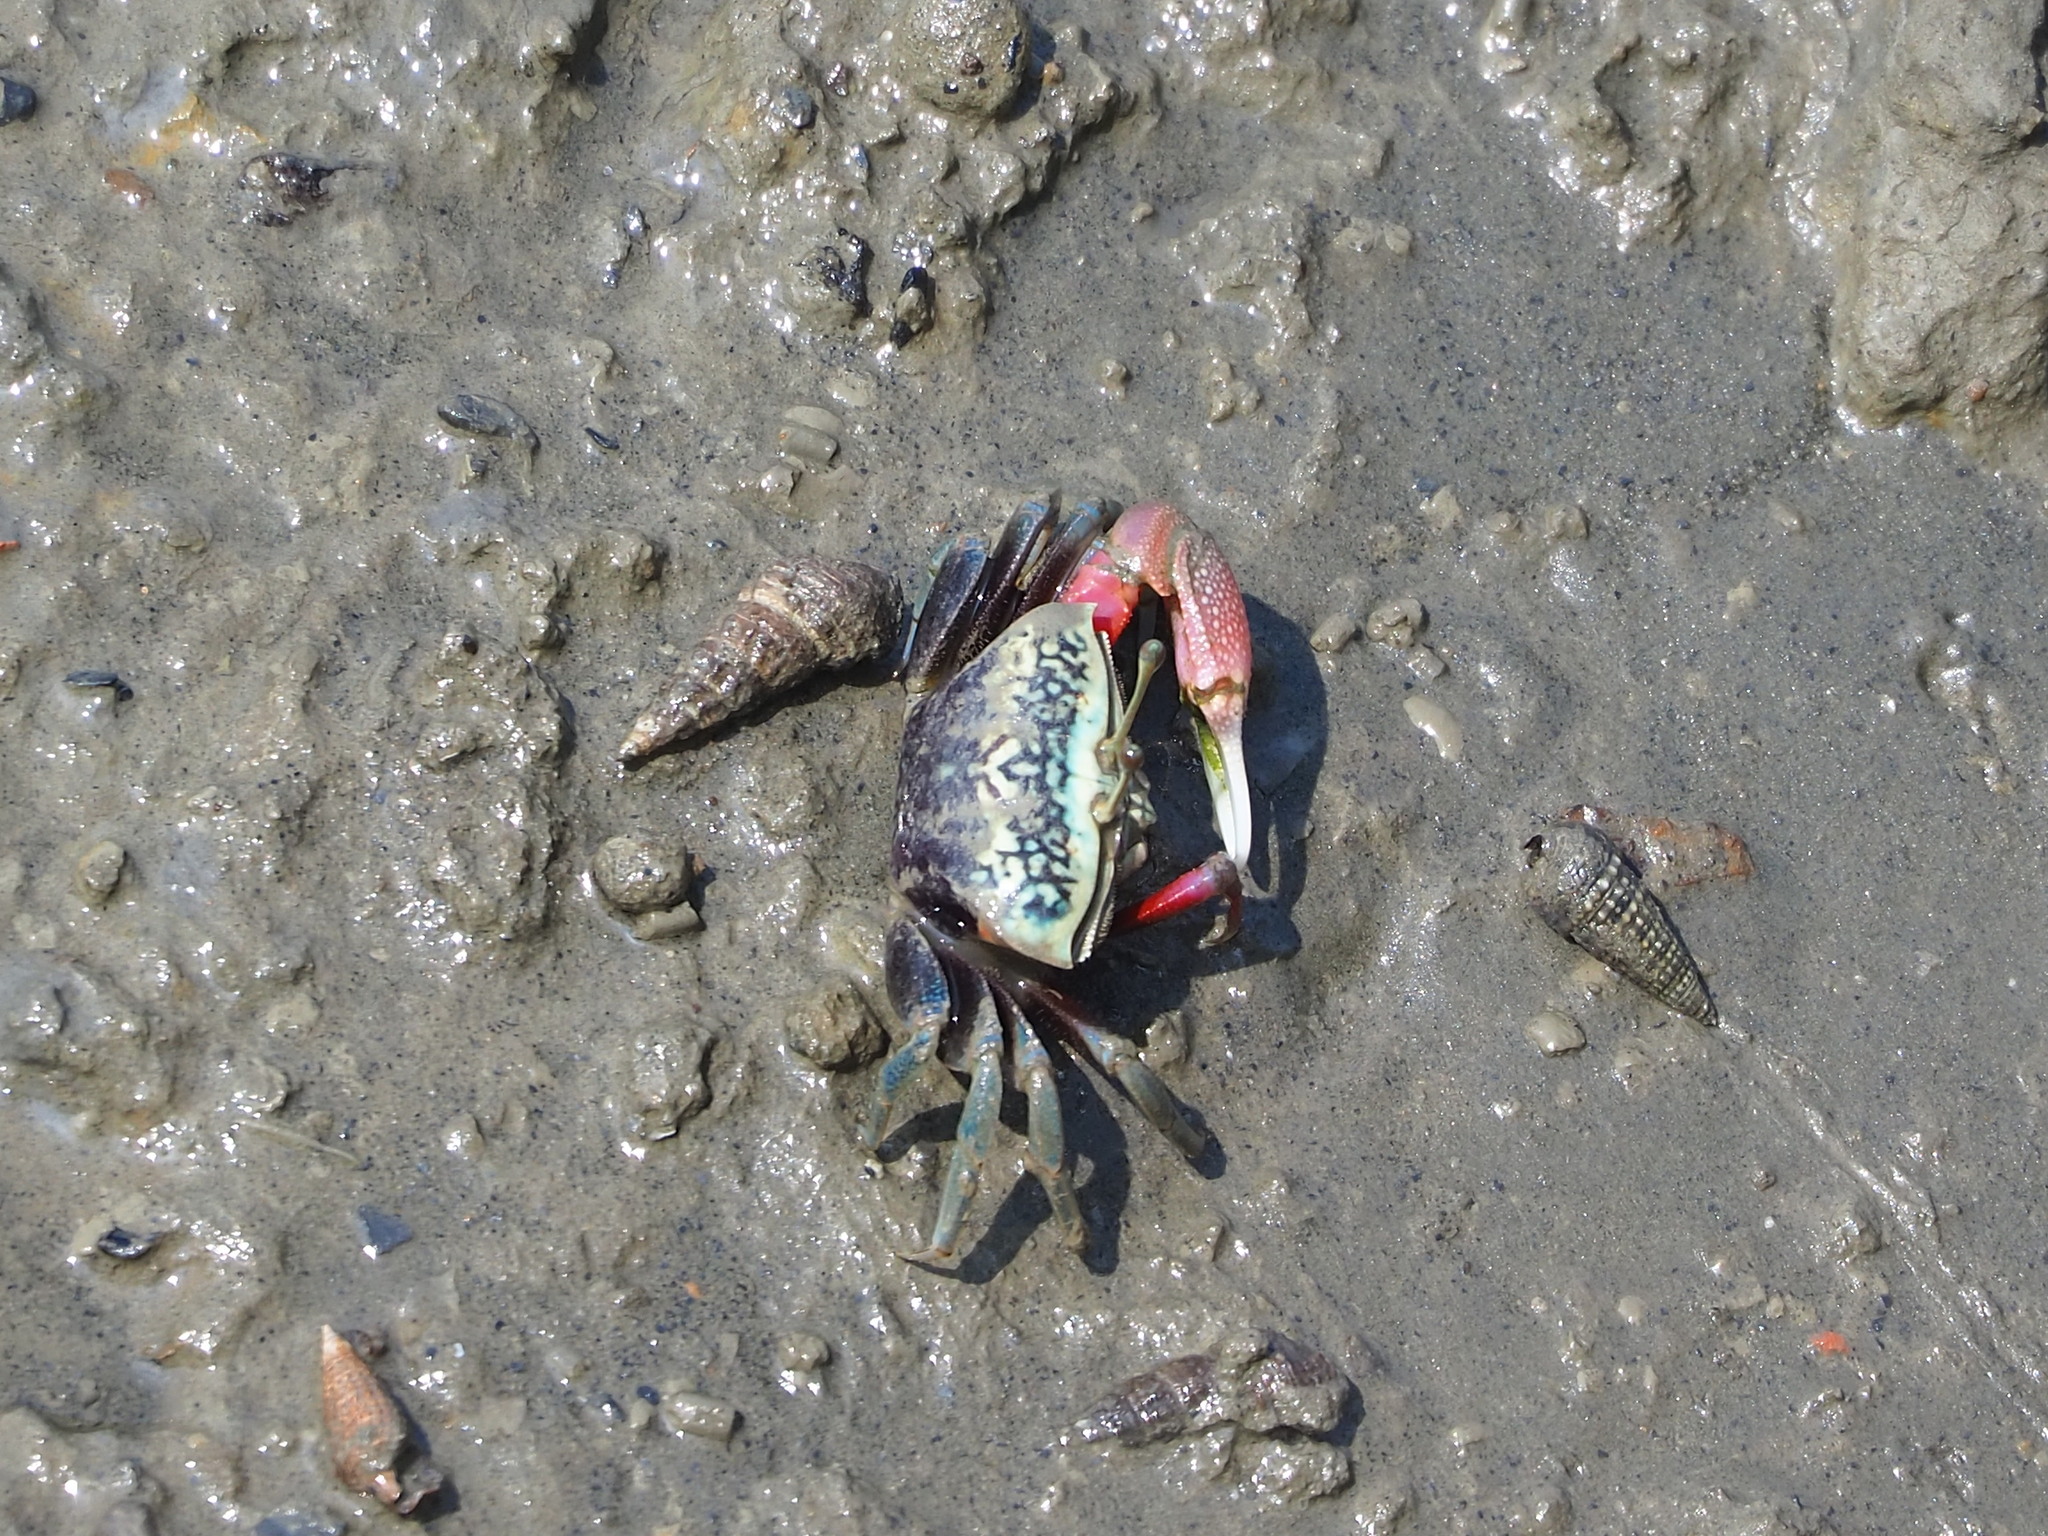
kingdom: Animalia
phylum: Arthropoda
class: Malacostraca
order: Decapoda
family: Ocypodidae
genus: Tubuca
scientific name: Tubuca arcuata
